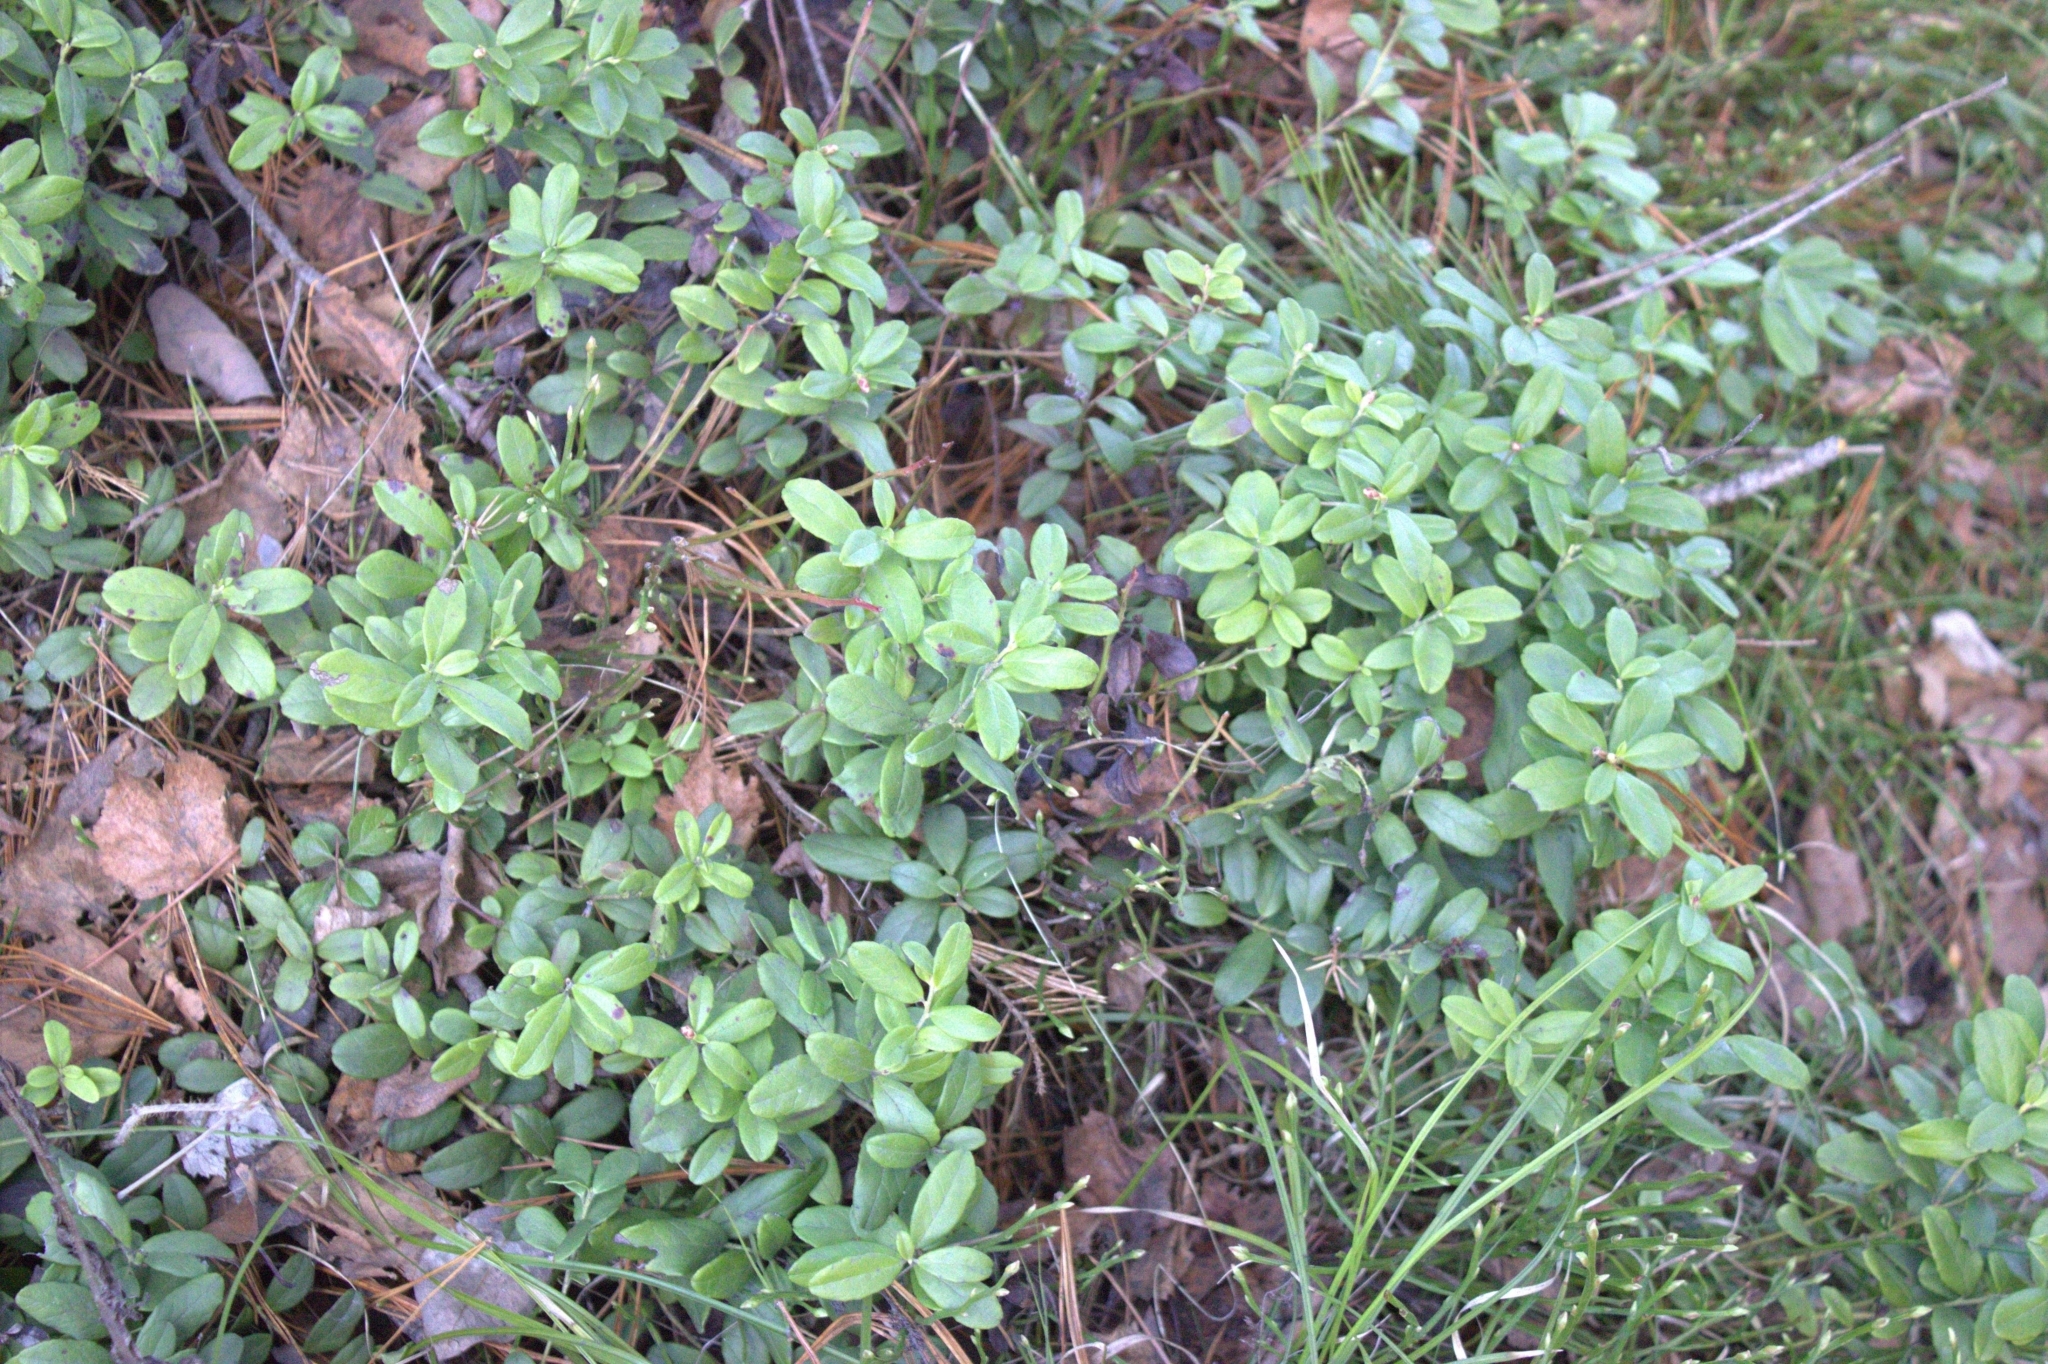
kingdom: Plantae
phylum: Tracheophyta
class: Magnoliopsida
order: Ericales
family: Ericaceae
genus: Vaccinium
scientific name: Vaccinium vitis-idaea
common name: Cowberry
